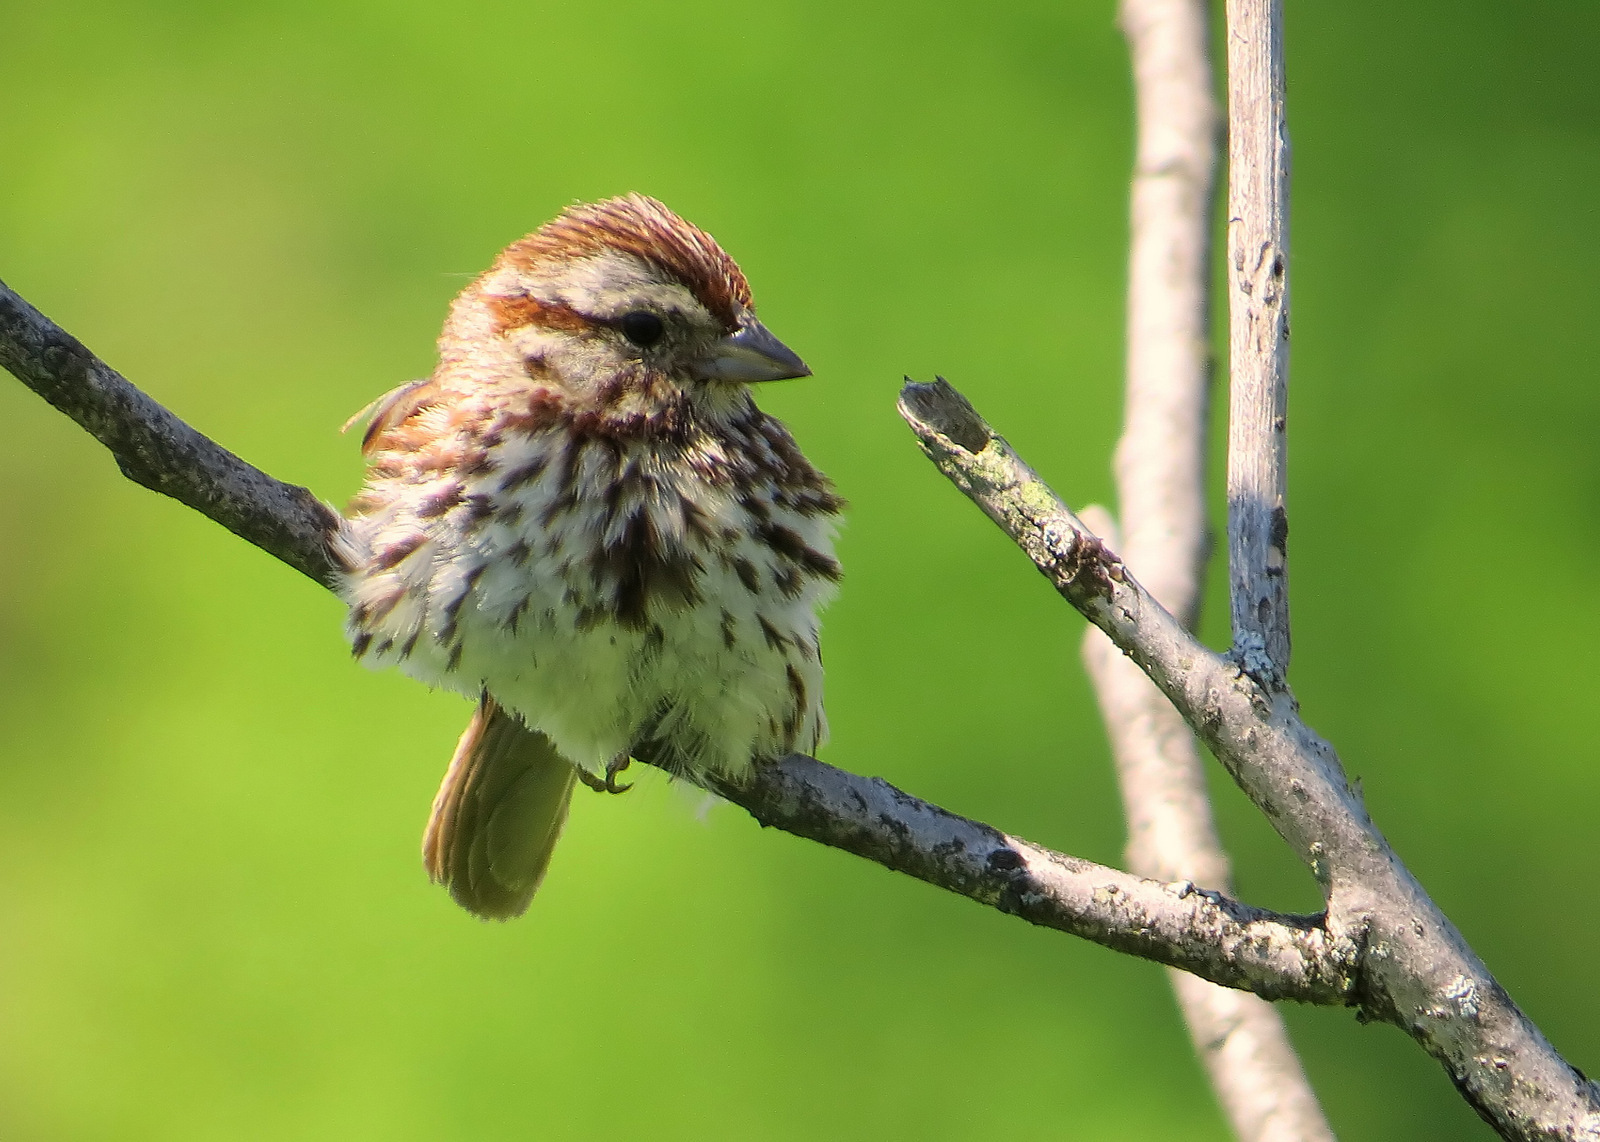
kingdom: Animalia
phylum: Chordata
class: Aves
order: Passeriformes
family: Passerellidae
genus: Melospiza
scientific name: Melospiza melodia
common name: Song sparrow
